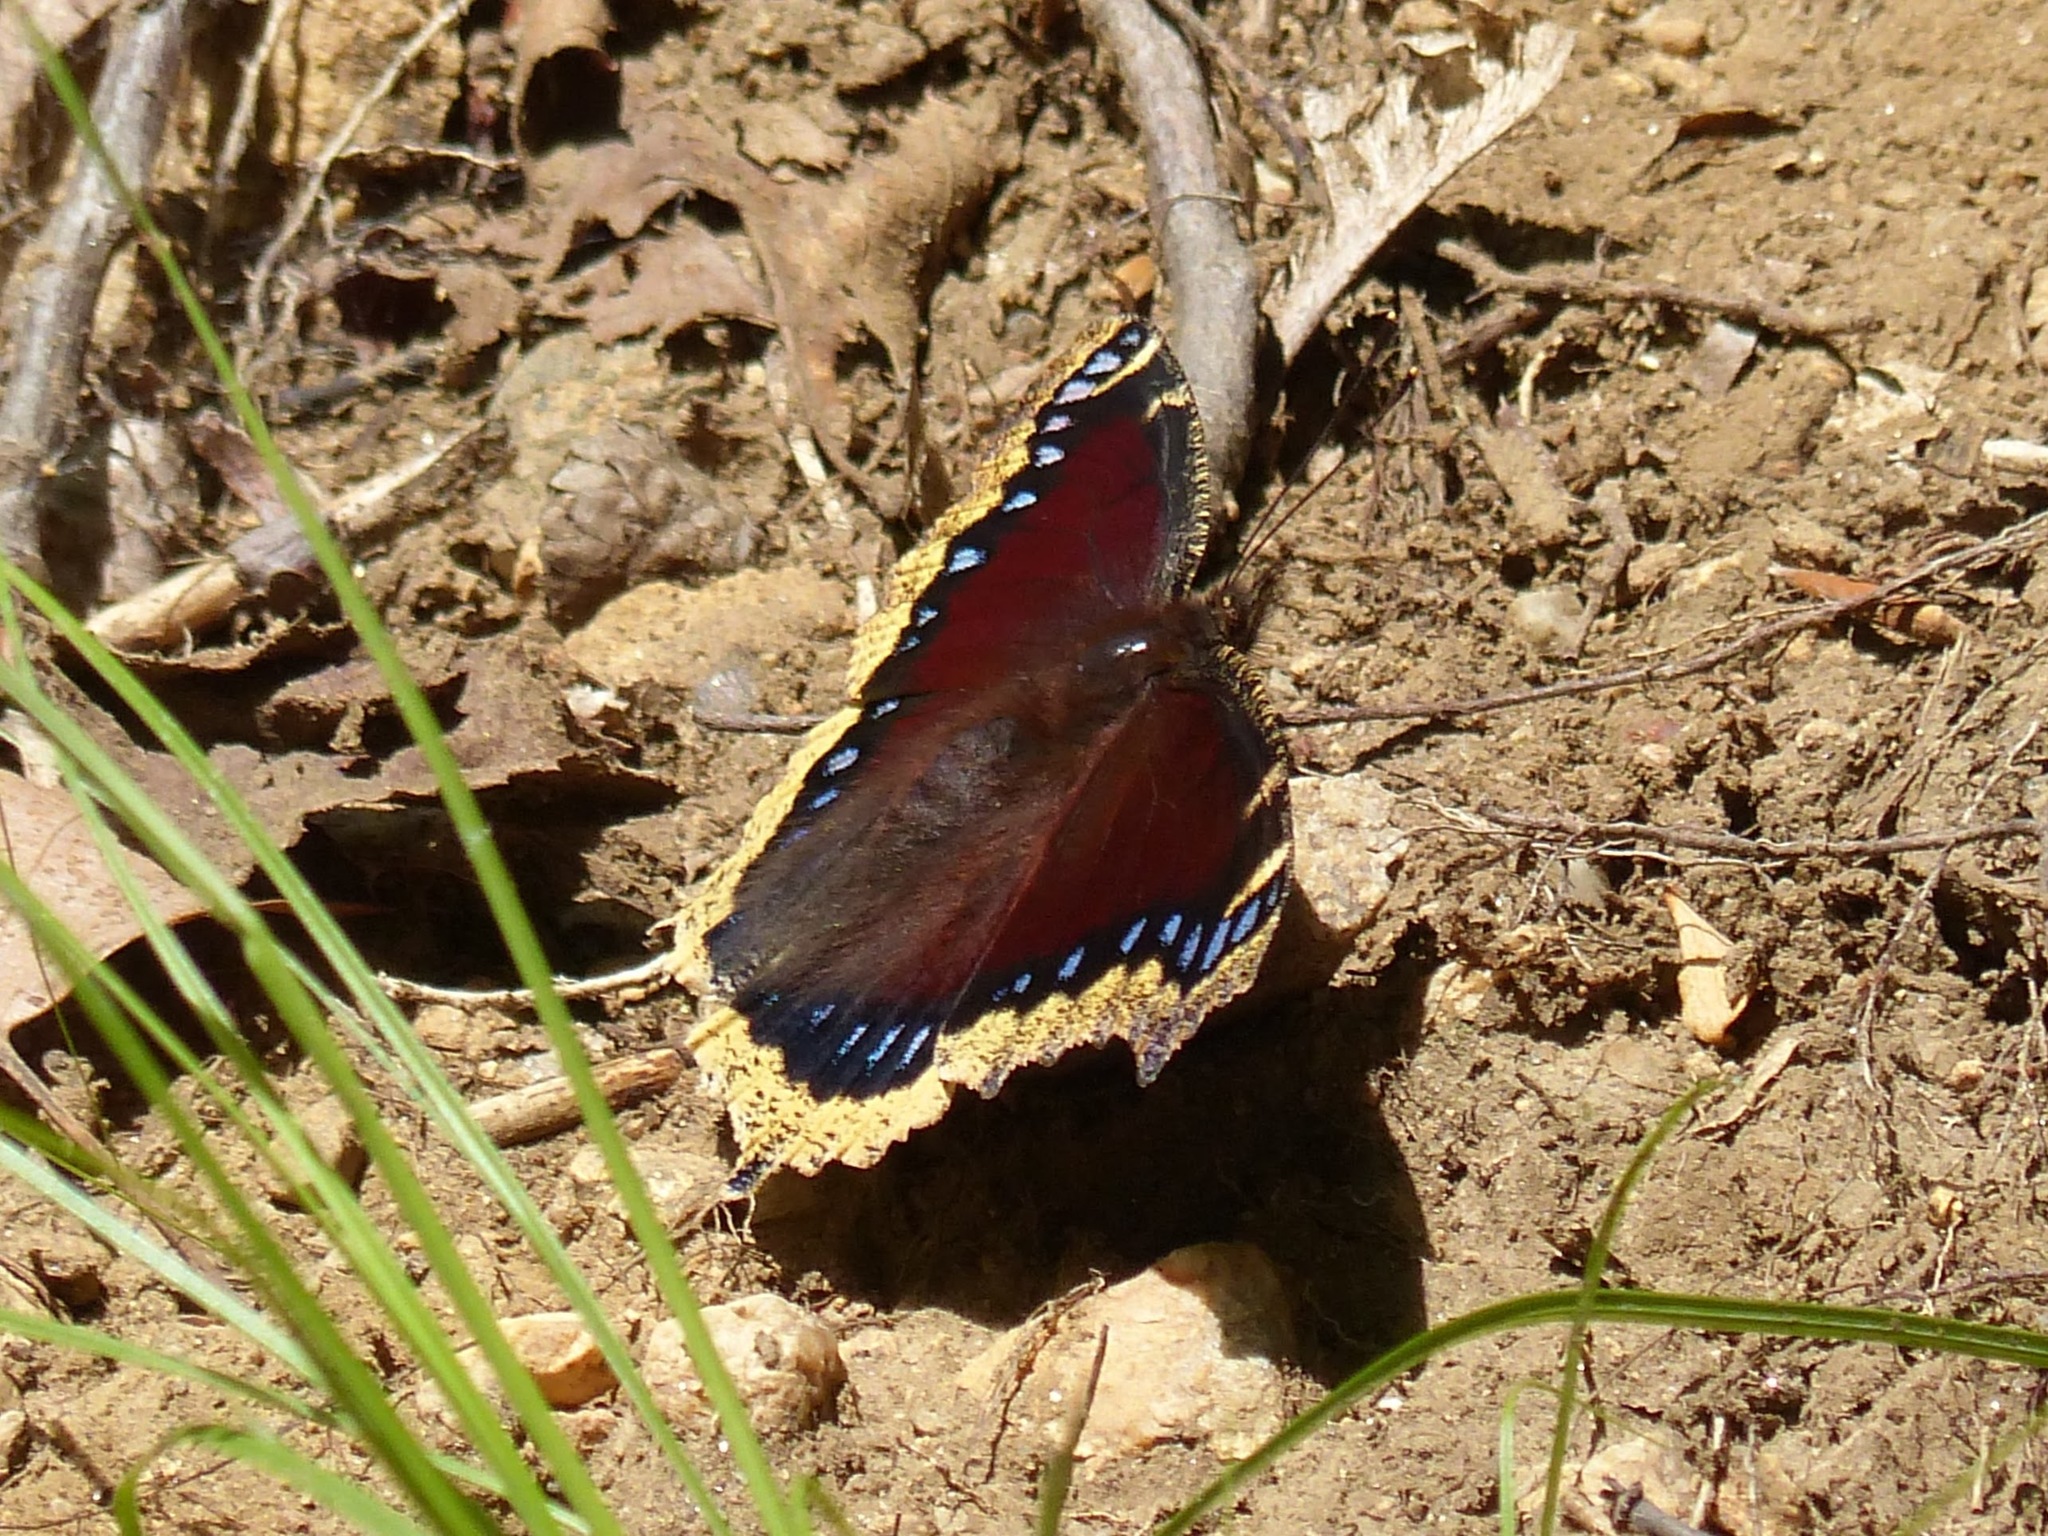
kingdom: Animalia
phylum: Arthropoda
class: Insecta
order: Lepidoptera
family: Nymphalidae
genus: Nymphalis
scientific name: Nymphalis antiopa
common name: Camberwell beauty
